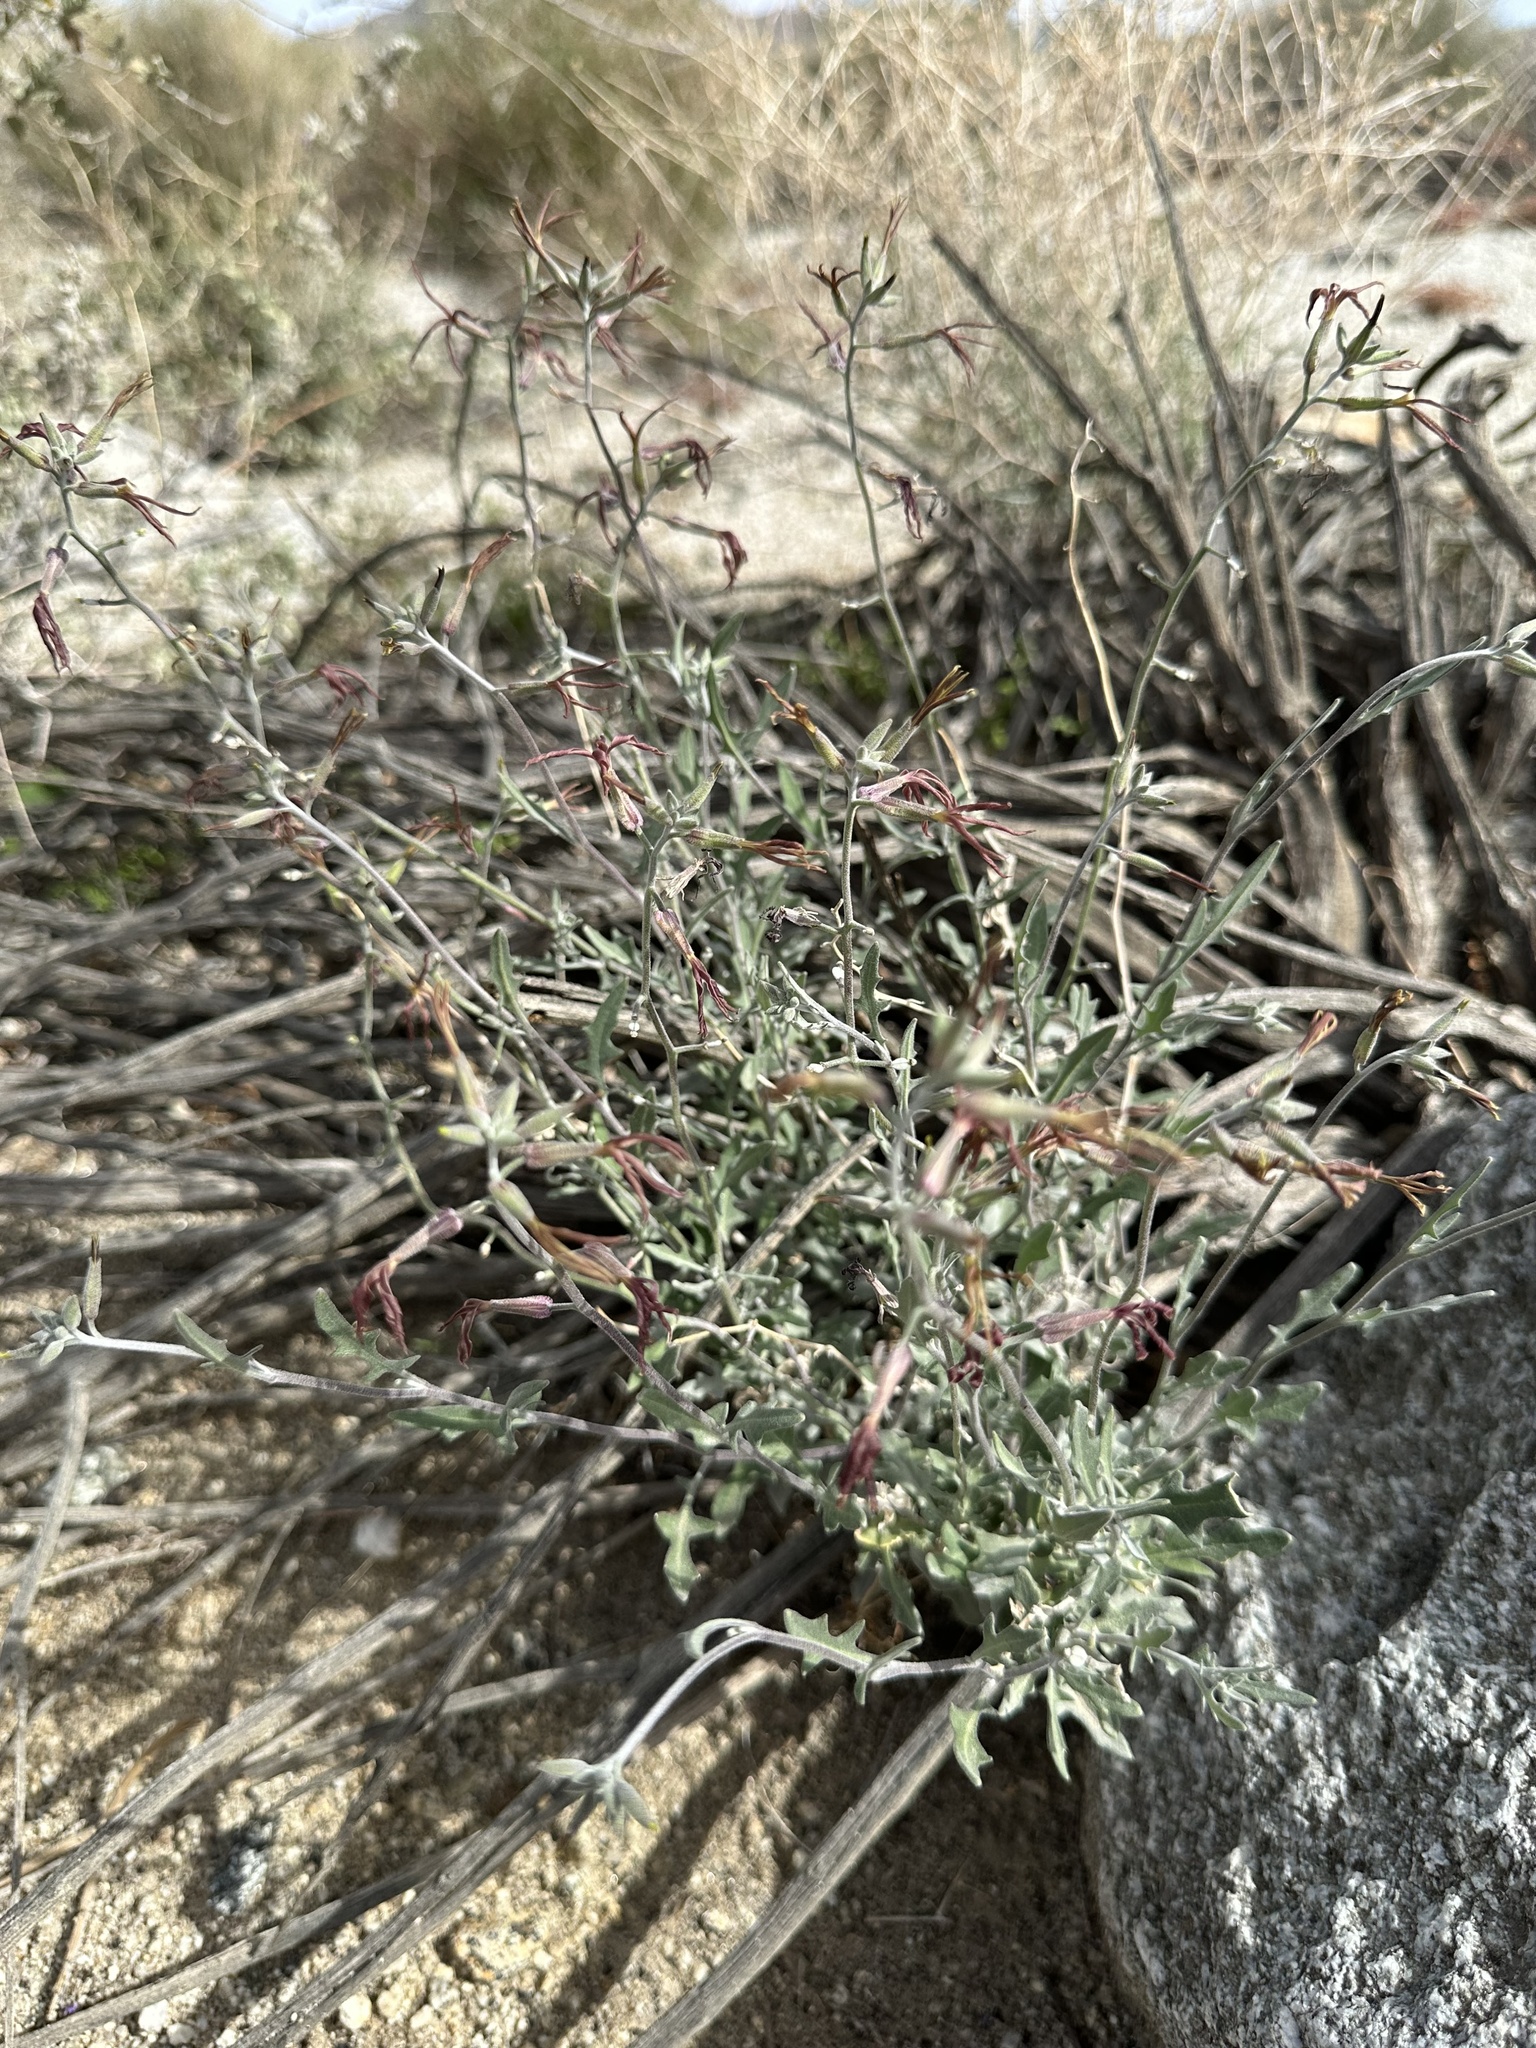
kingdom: Plantae
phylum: Tracheophyta
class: Magnoliopsida
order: Brassicales
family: Brassicaceae
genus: Lyrocarpa
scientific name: Lyrocarpa coulteri
